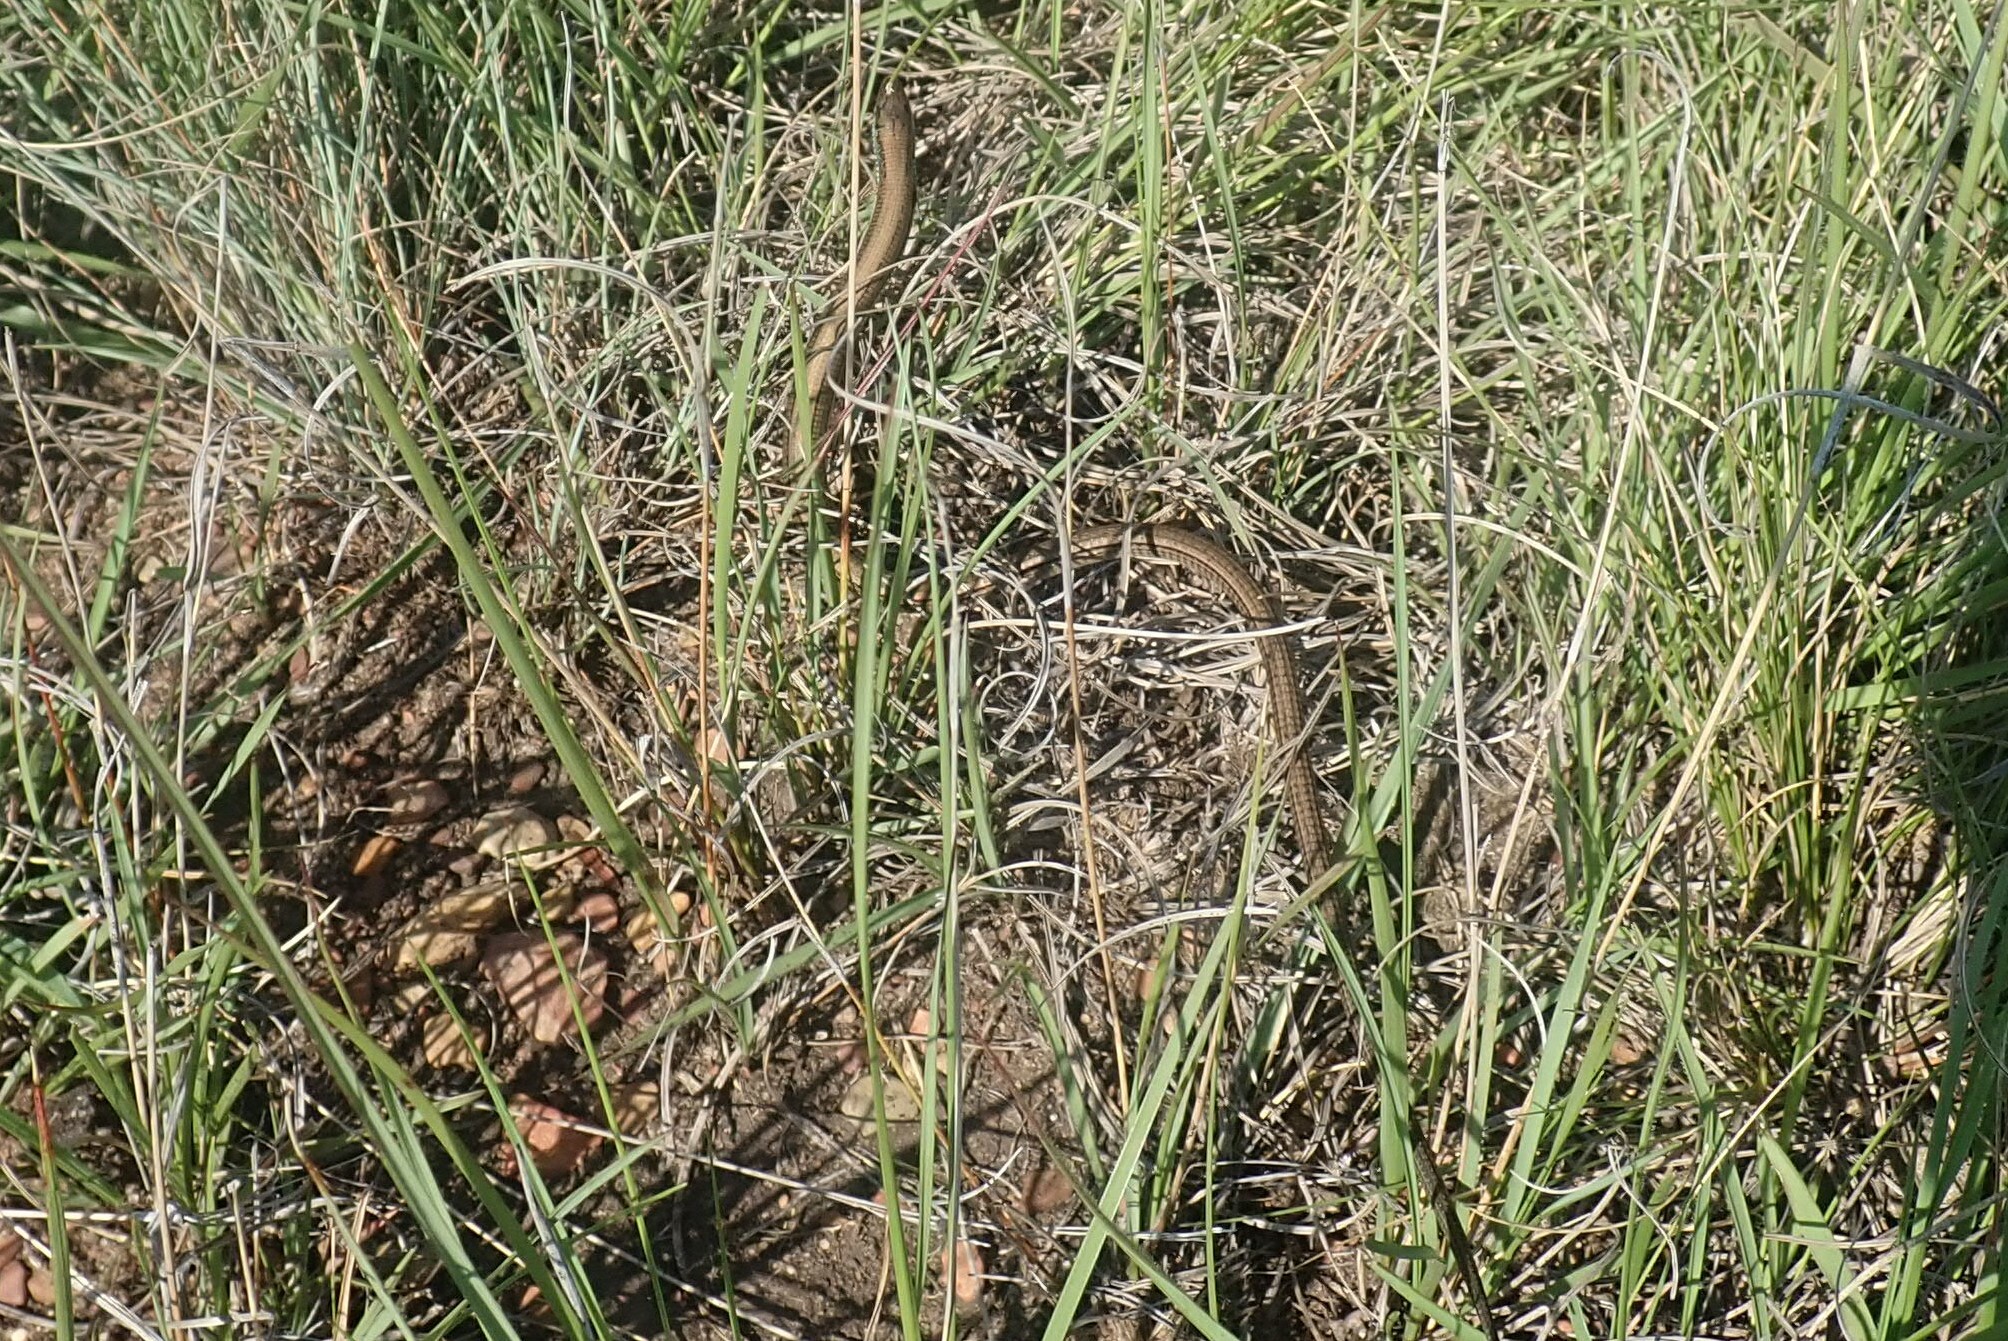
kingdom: Animalia
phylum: Chordata
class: Squamata
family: Gerrhosauridae
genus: Tetradactylus
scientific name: Tetradactylus breyeri
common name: Breyer's long-tailed seps
